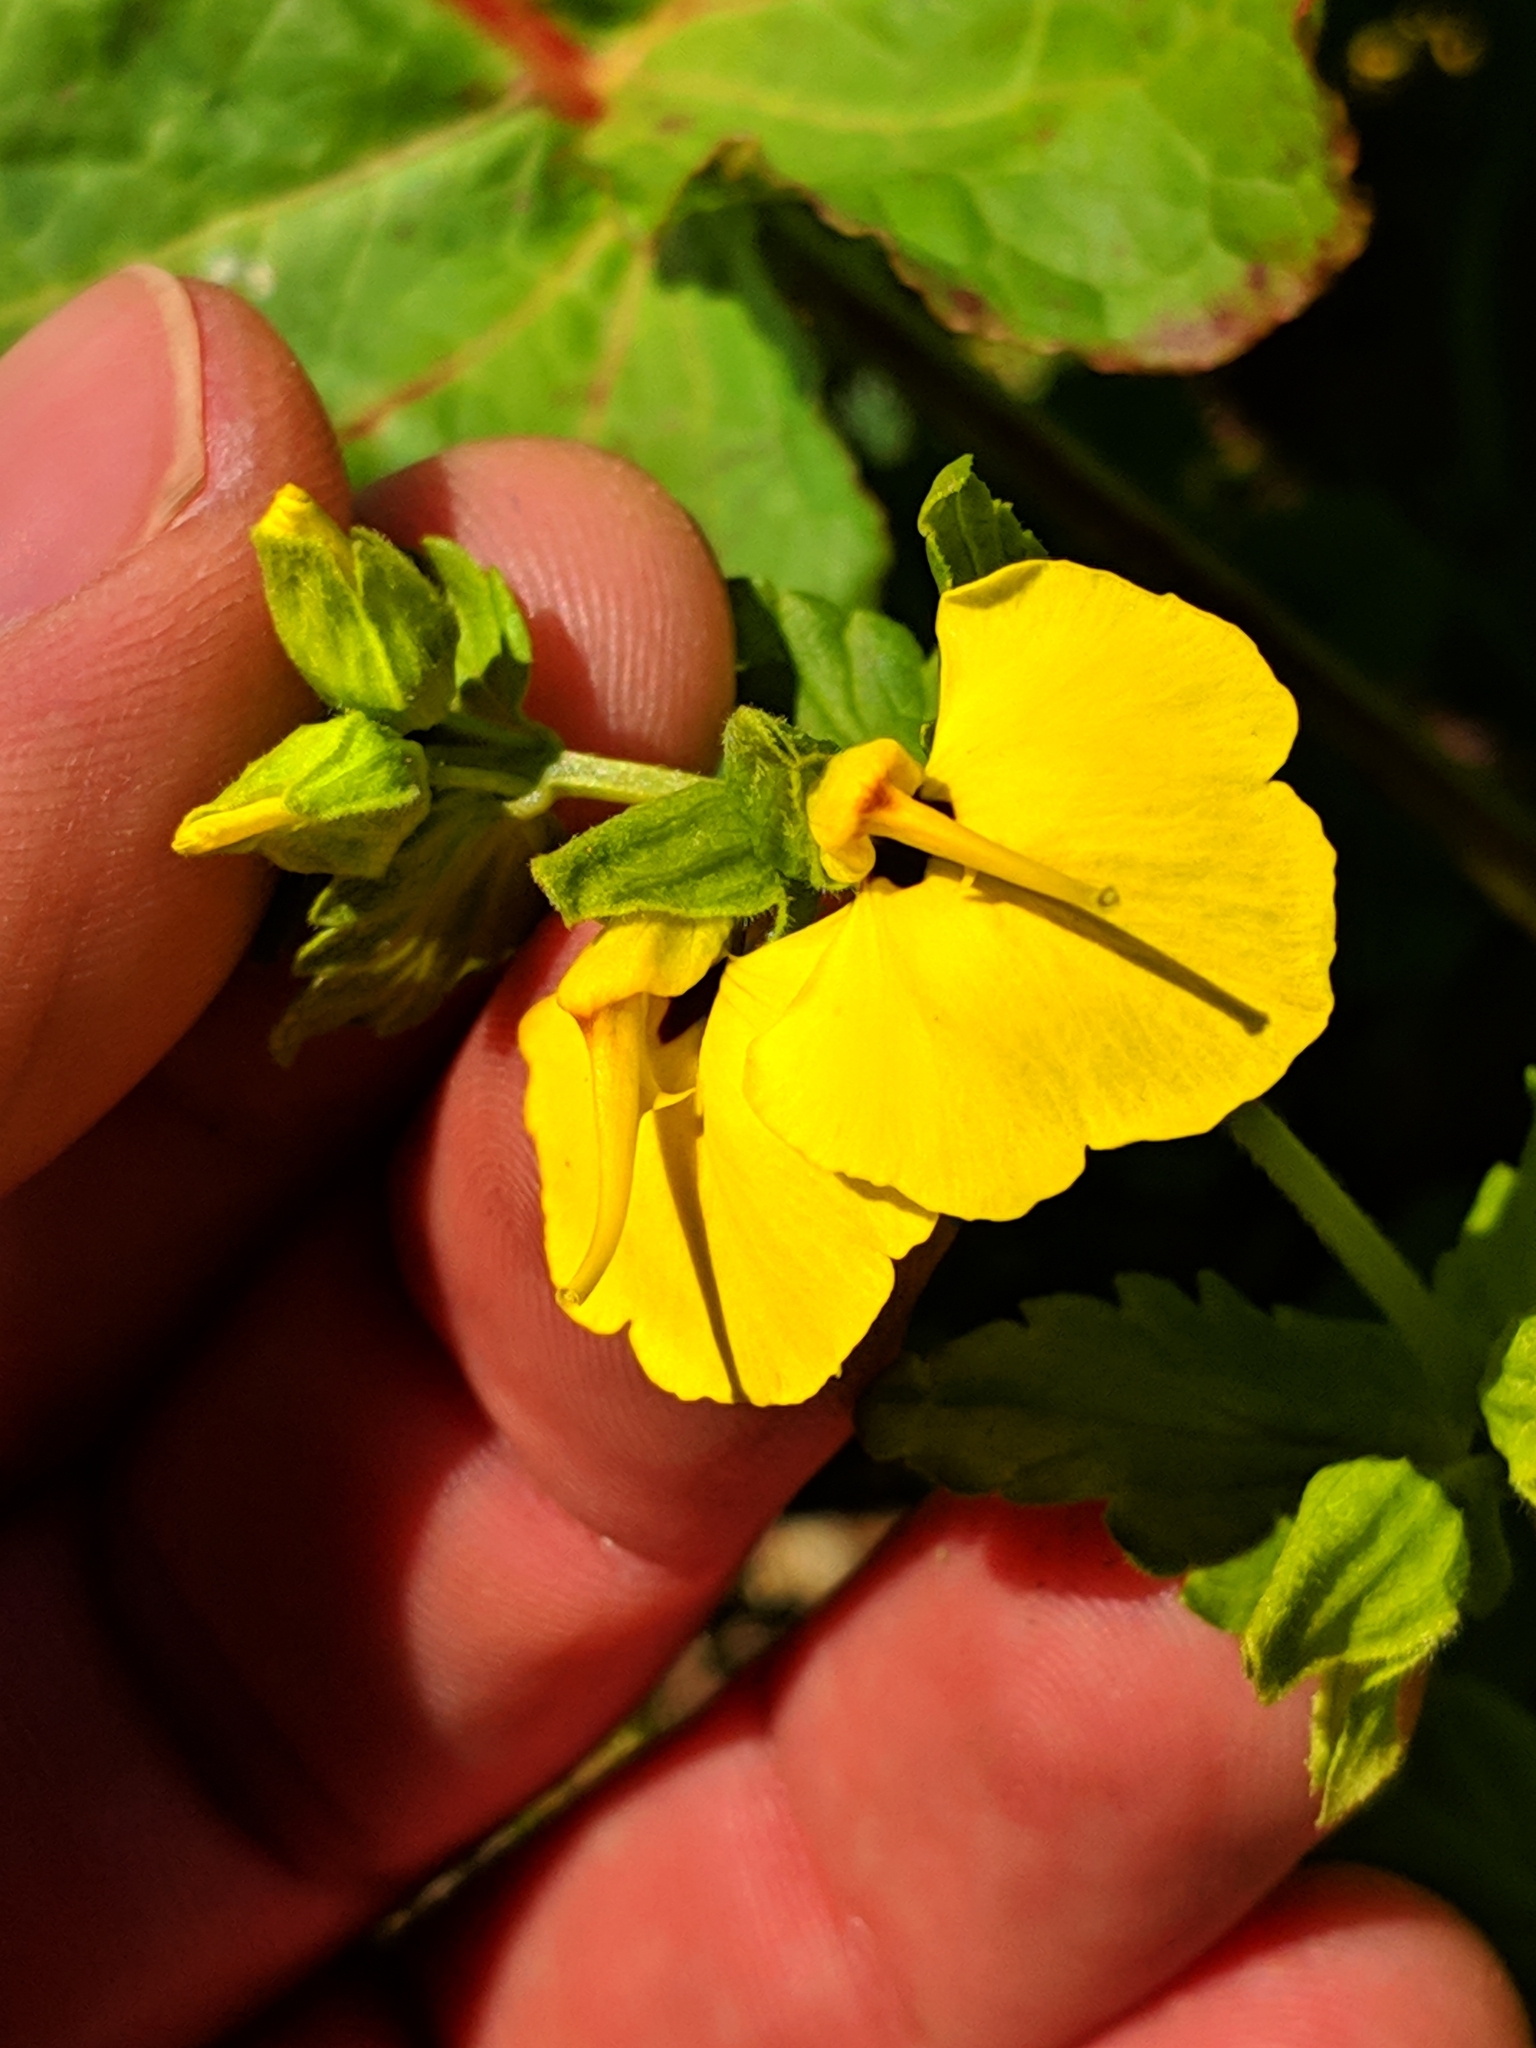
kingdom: Plantae
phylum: Tracheophyta
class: Magnoliopsida
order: Lamiales
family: Orobanchaceae
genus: Rhynchocorys
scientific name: Rhynchocorys elephas
